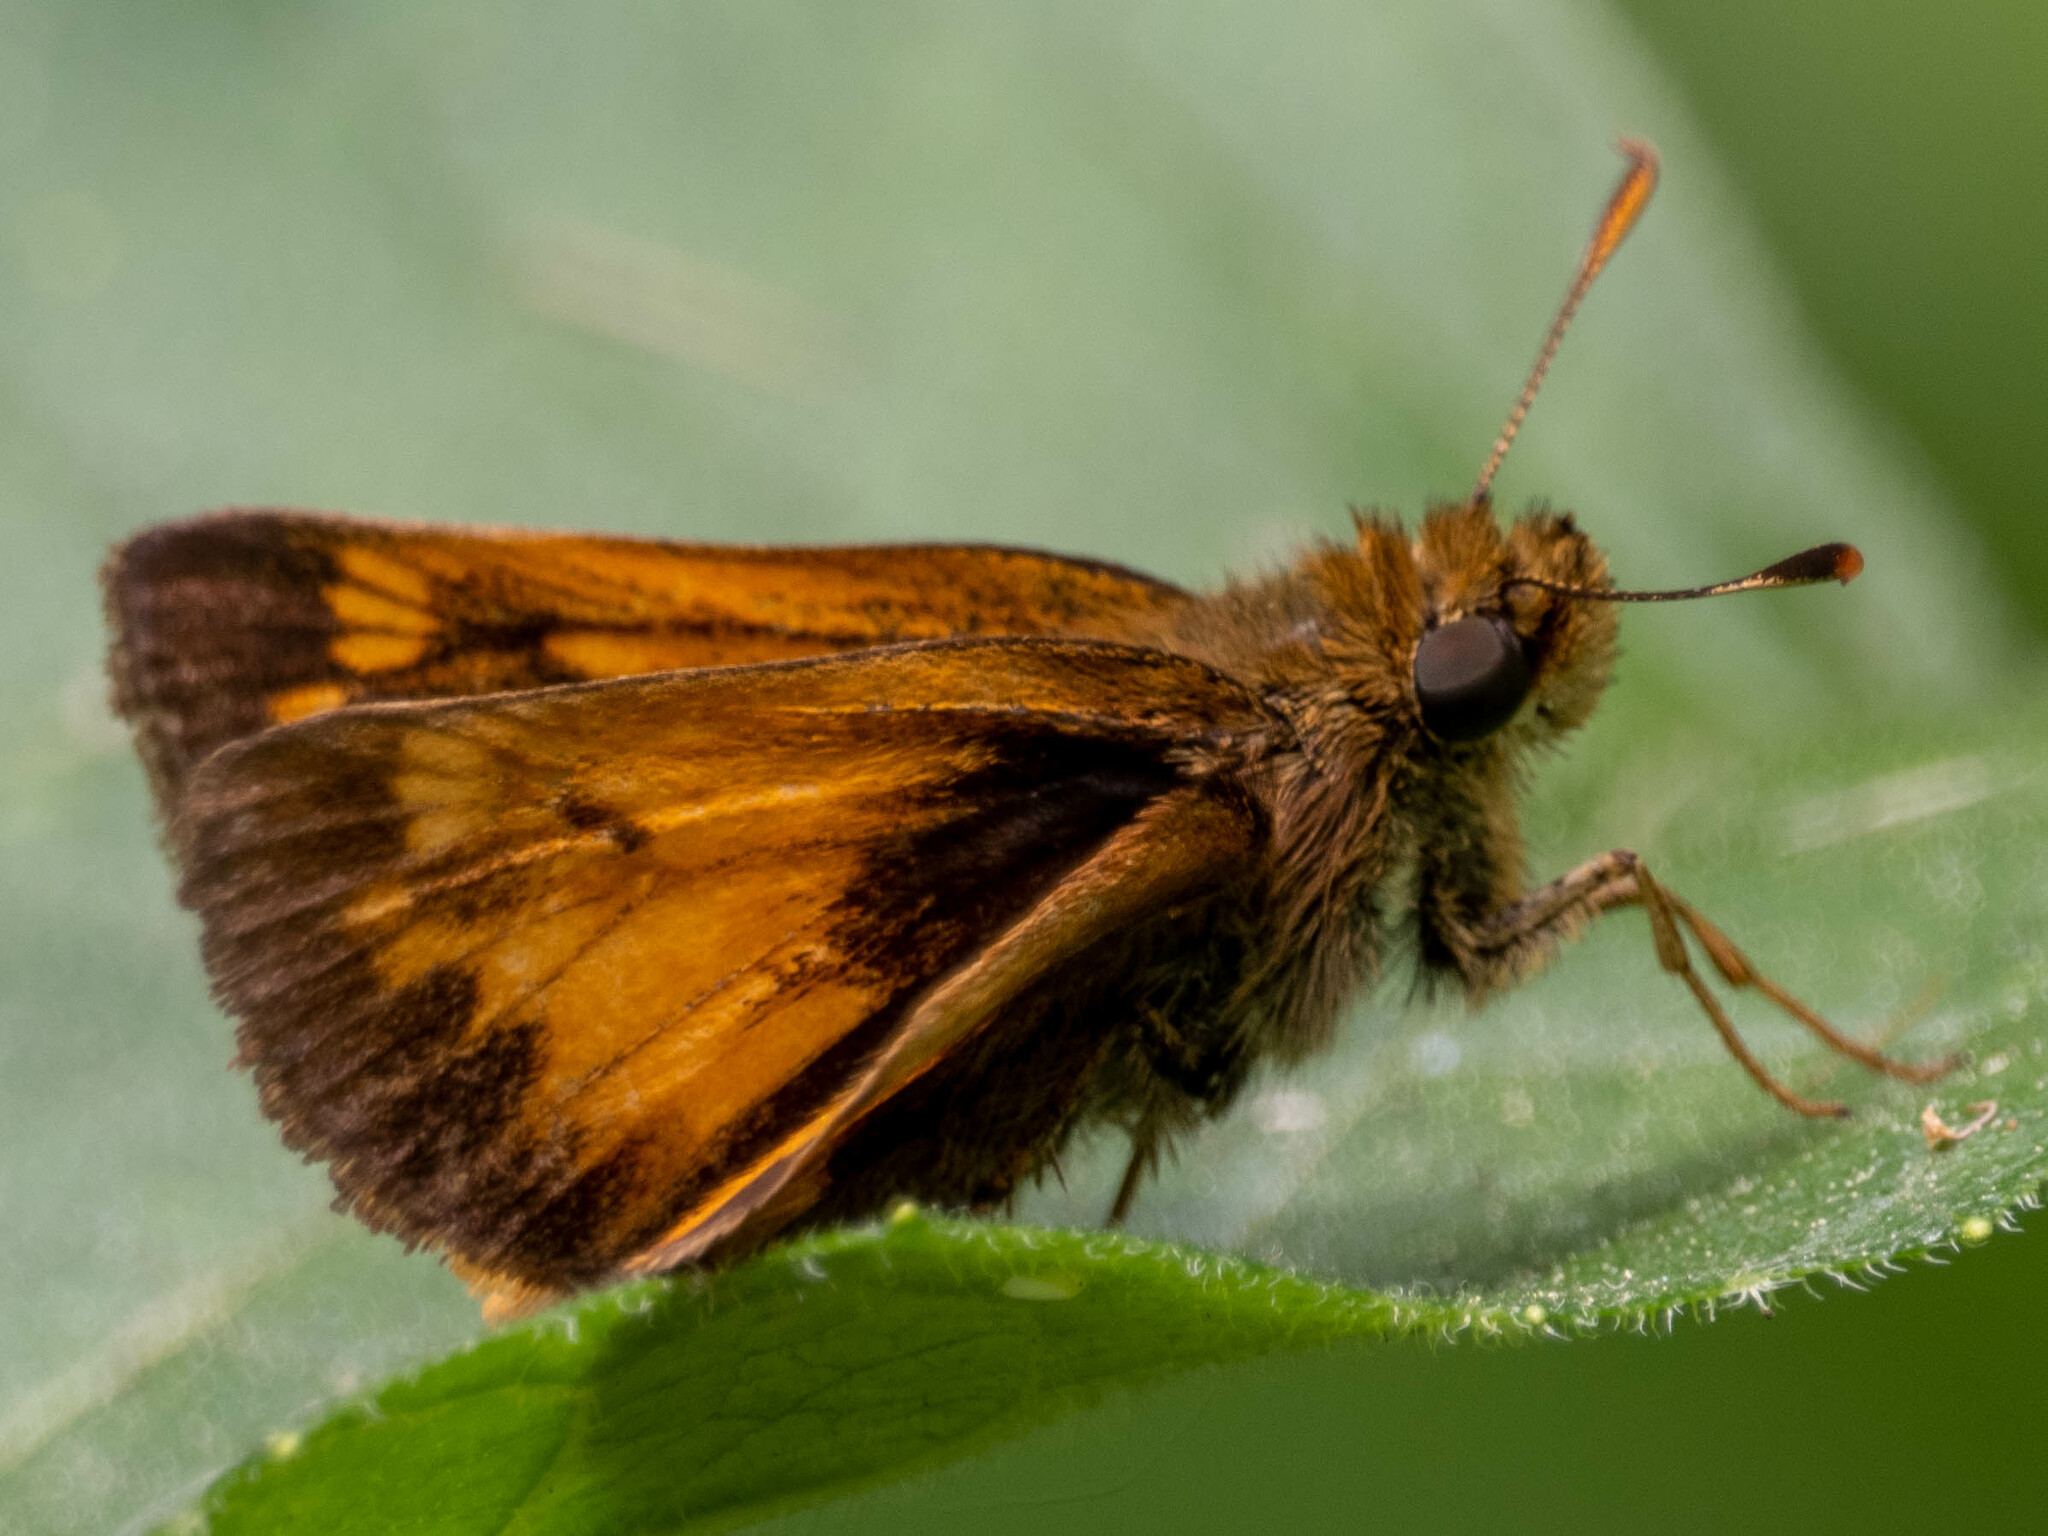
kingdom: Animalia
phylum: Arthropoda
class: Insecta
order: Lepidoptera
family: Hesperiidae
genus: Lon
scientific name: Lon hobomok
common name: Hobomok skipper
